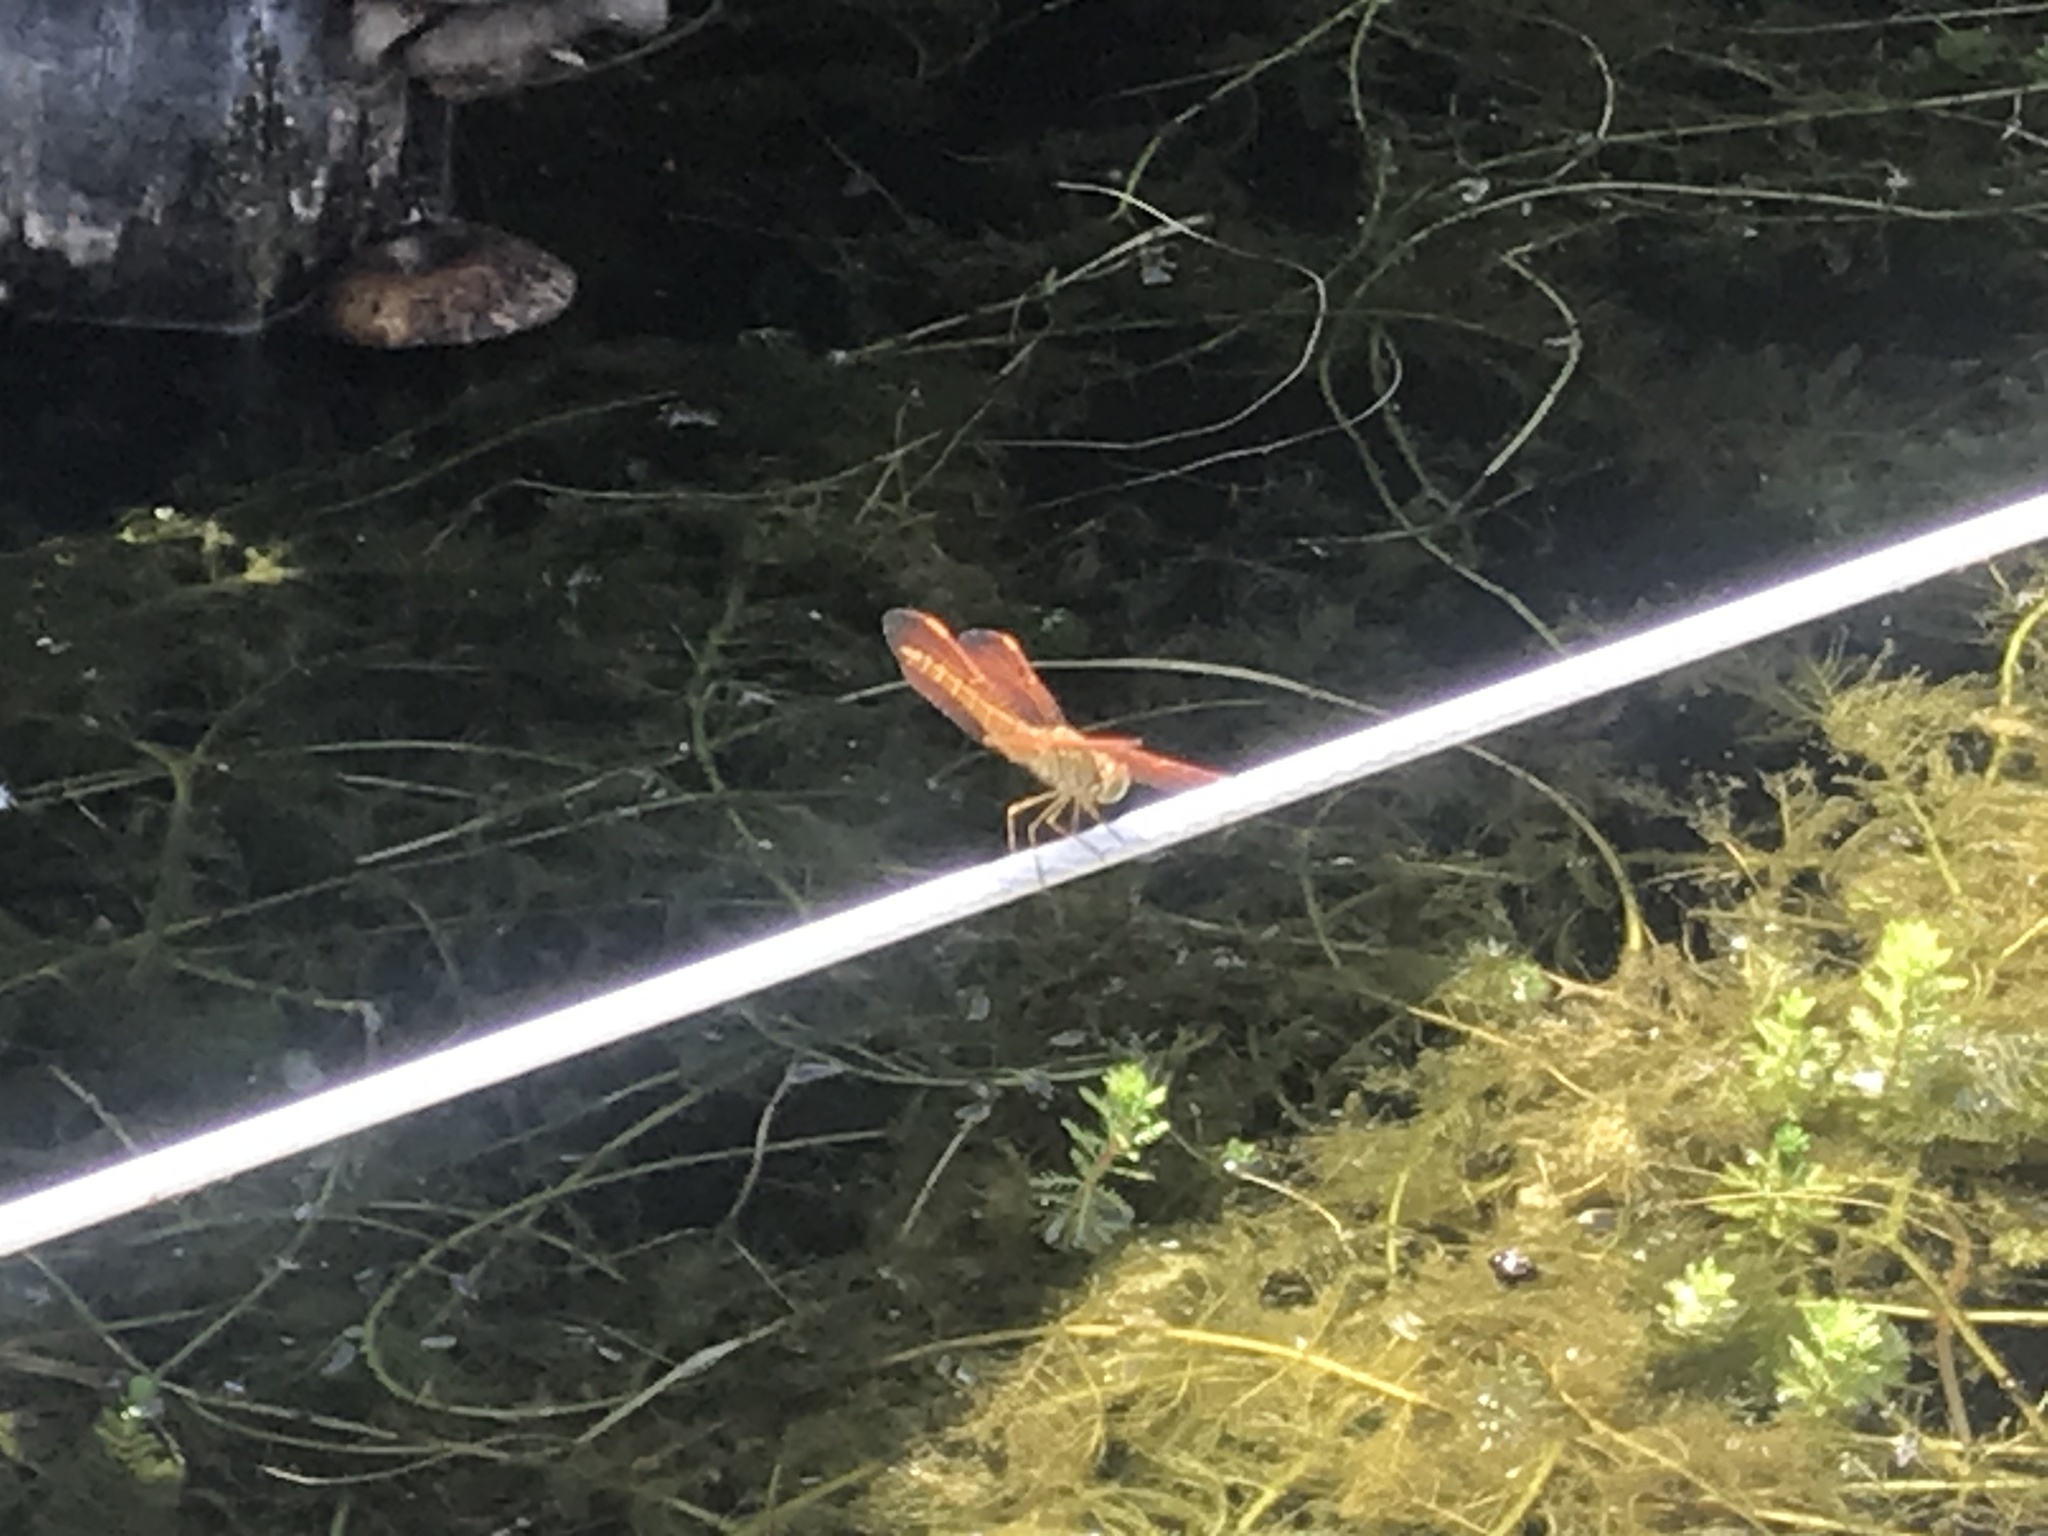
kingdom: Animalia
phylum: Arthropoda
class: Insecta
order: Odonata
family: Libellulidae
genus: Brachythemis
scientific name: Brachythemis contaminata
